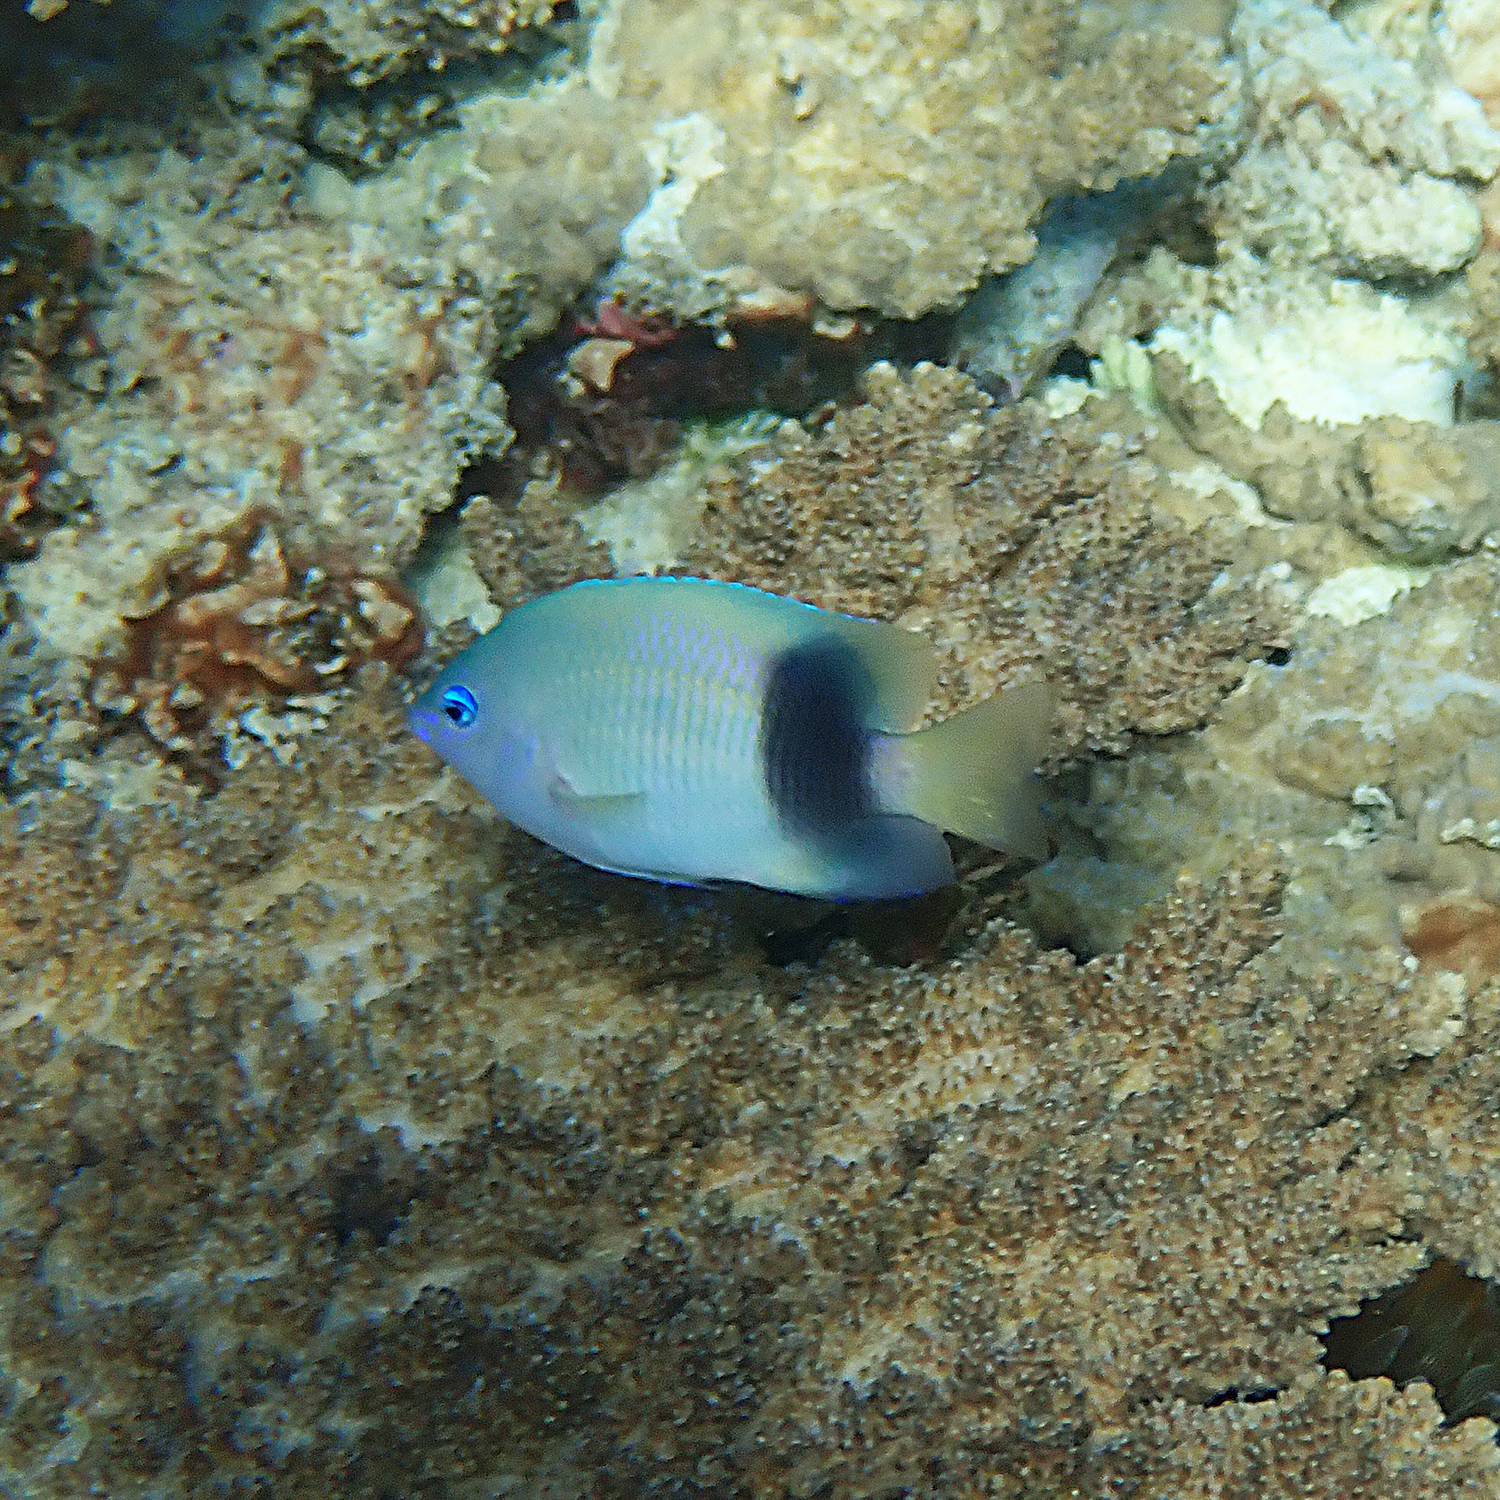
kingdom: Animalia
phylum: Chordata
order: Perciformes
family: Pomacentridae
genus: Plectroglyphidodon
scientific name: Plectroglyphidodon johnstonianus
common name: Johnston damsel
